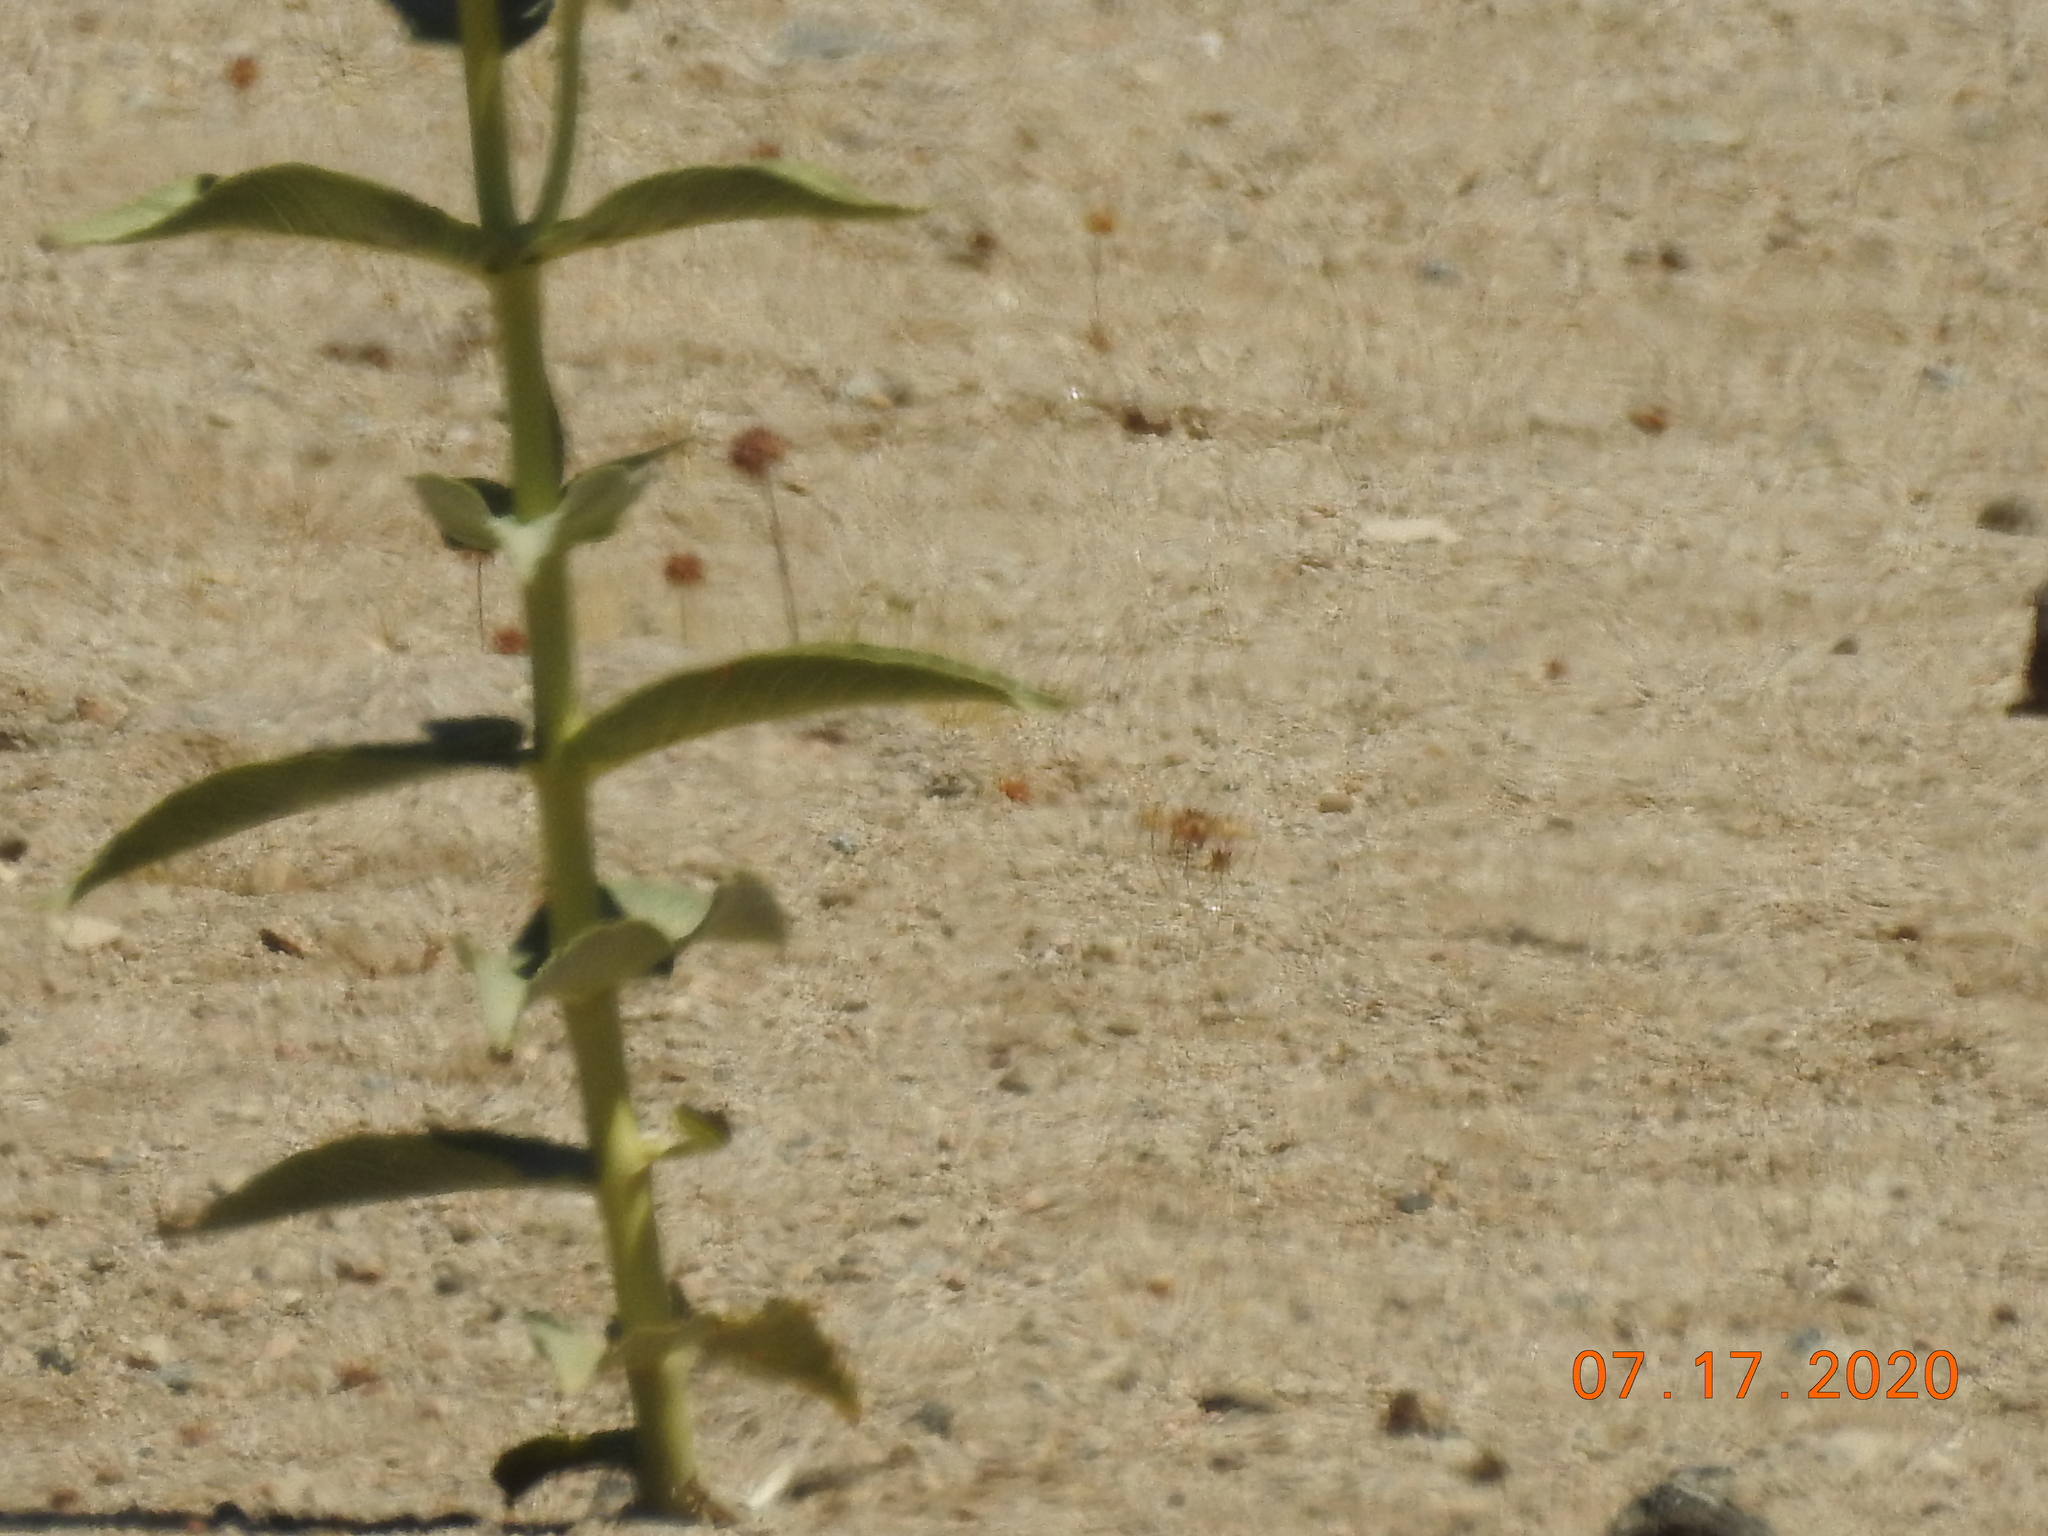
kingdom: Plantae
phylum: Tracheophyta
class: Magnoliopsida
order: Gentianales
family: Apocynaceae
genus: Asclepias
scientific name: Asclepias erosa
